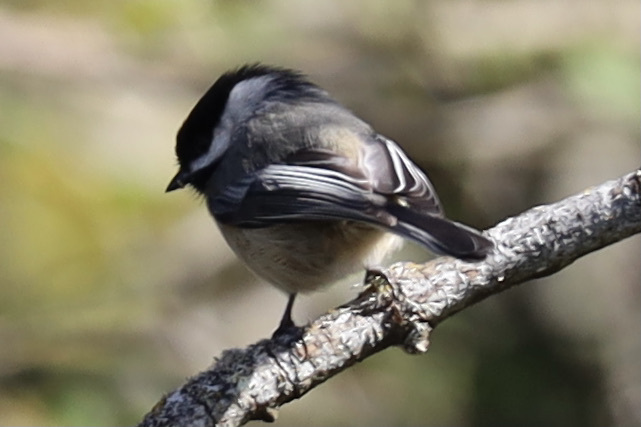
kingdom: Animalia
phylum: Chordata
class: Aves
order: Passeriformes
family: Paridae
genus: Poecile
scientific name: Poecile atricapillus
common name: Black-capped chickadee
